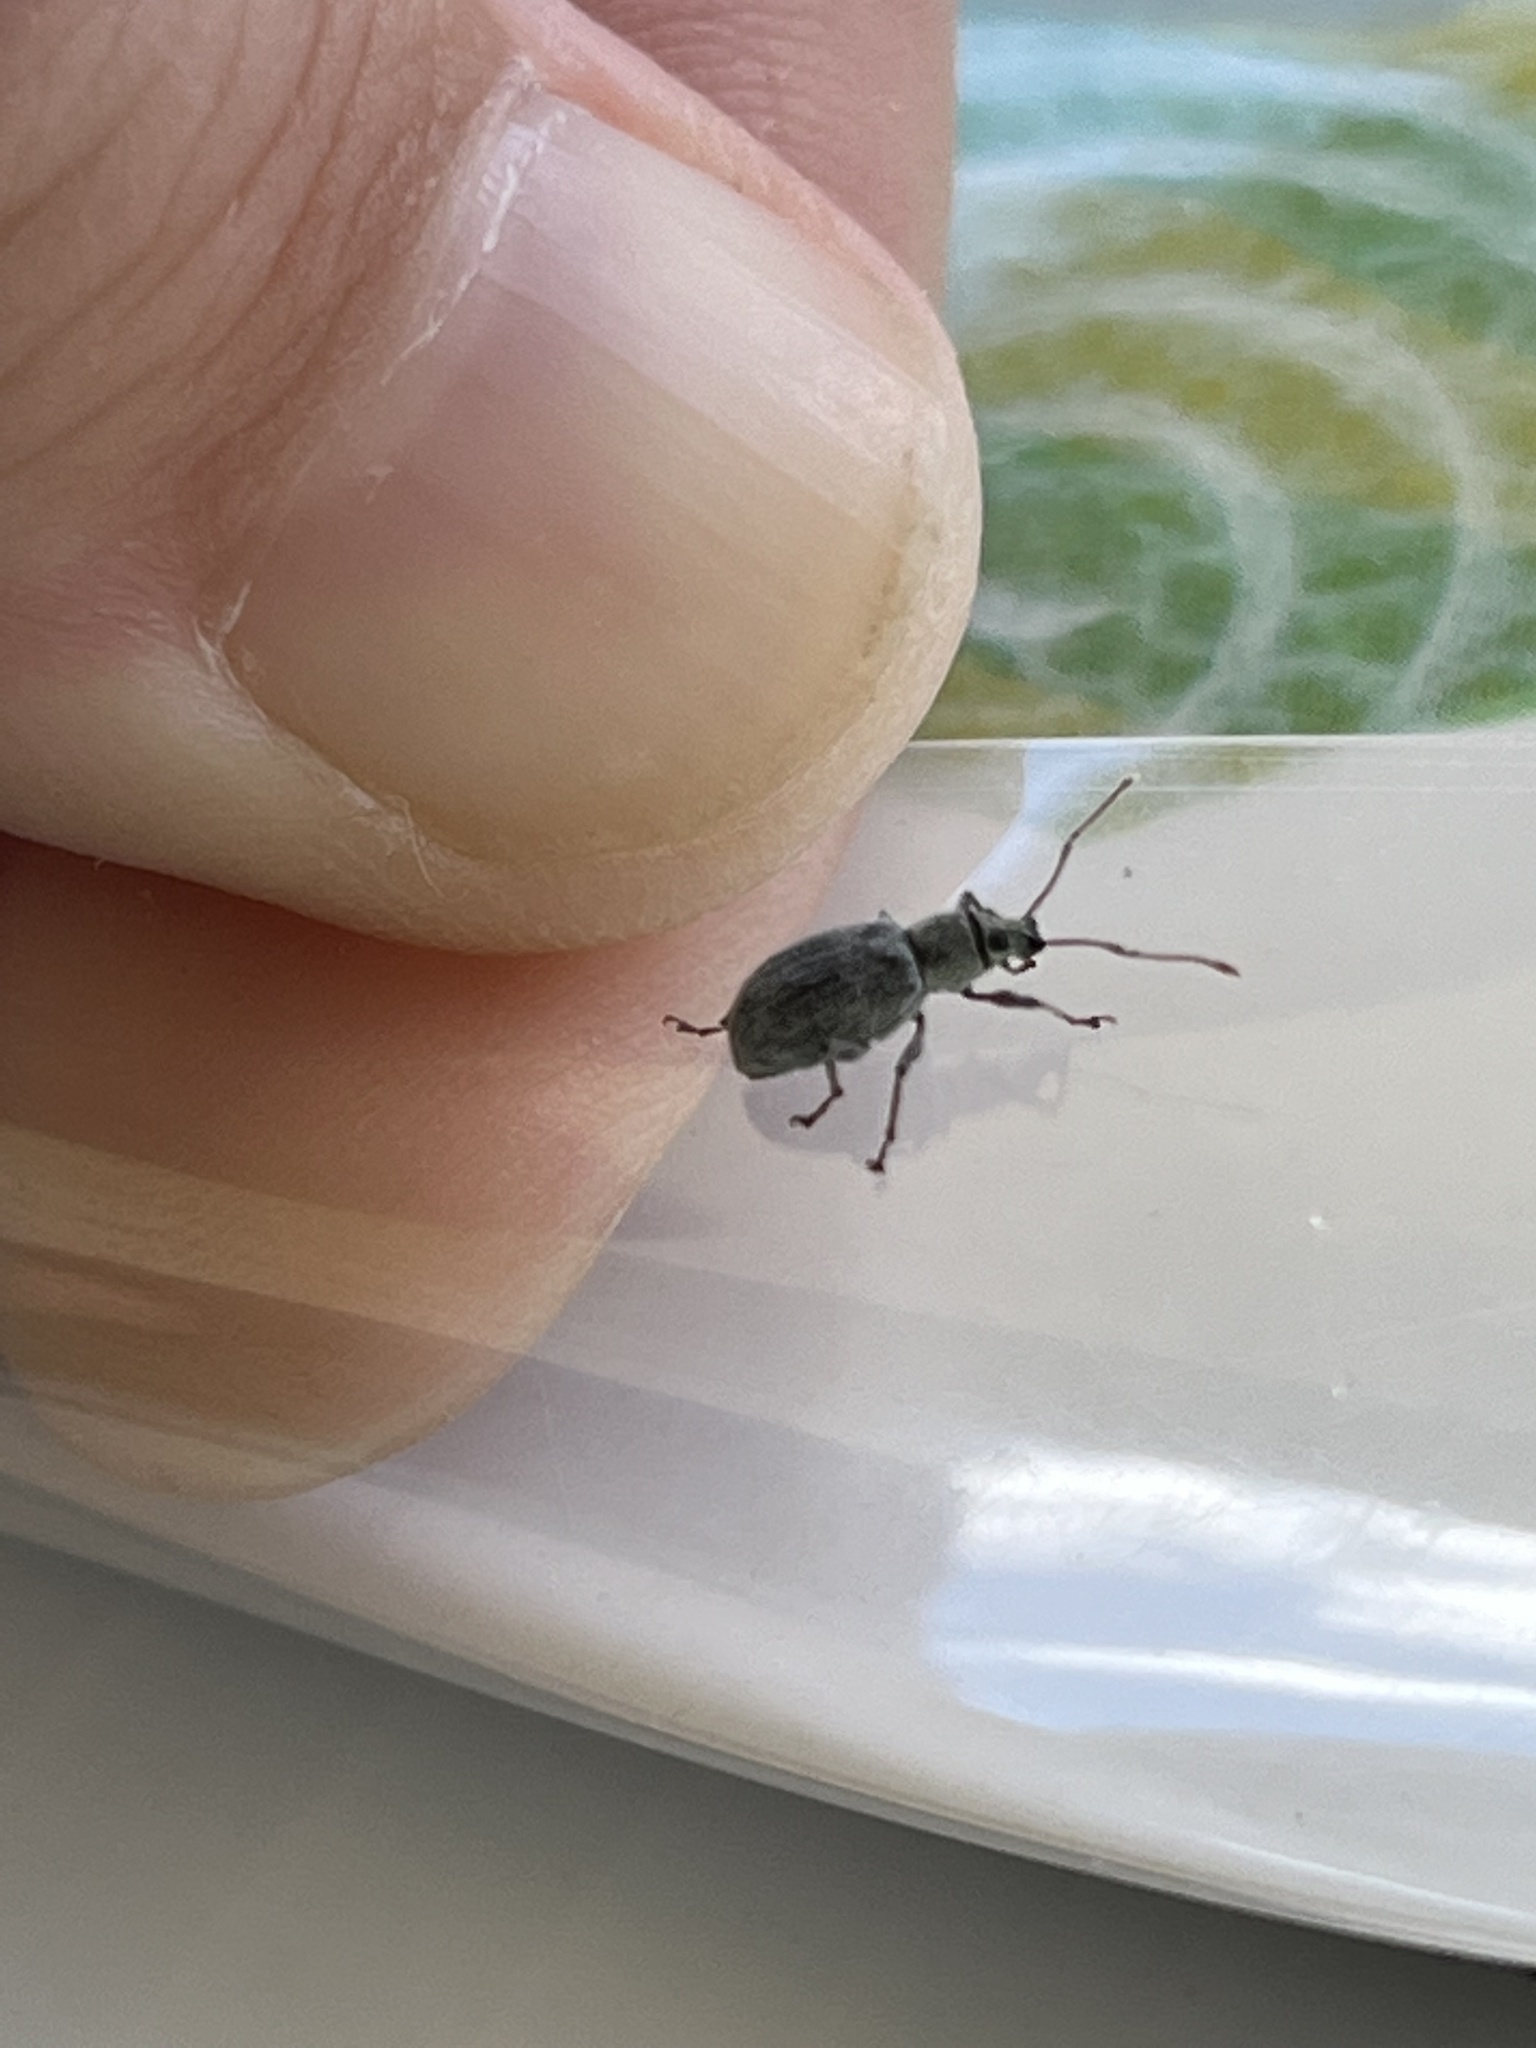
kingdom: Animalia
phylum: Arthropoda
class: Insecta
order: Coleoptera
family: Curculionidae
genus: Cyrtepistomus
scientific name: Cyrtepistomus castaneus
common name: Weevil
